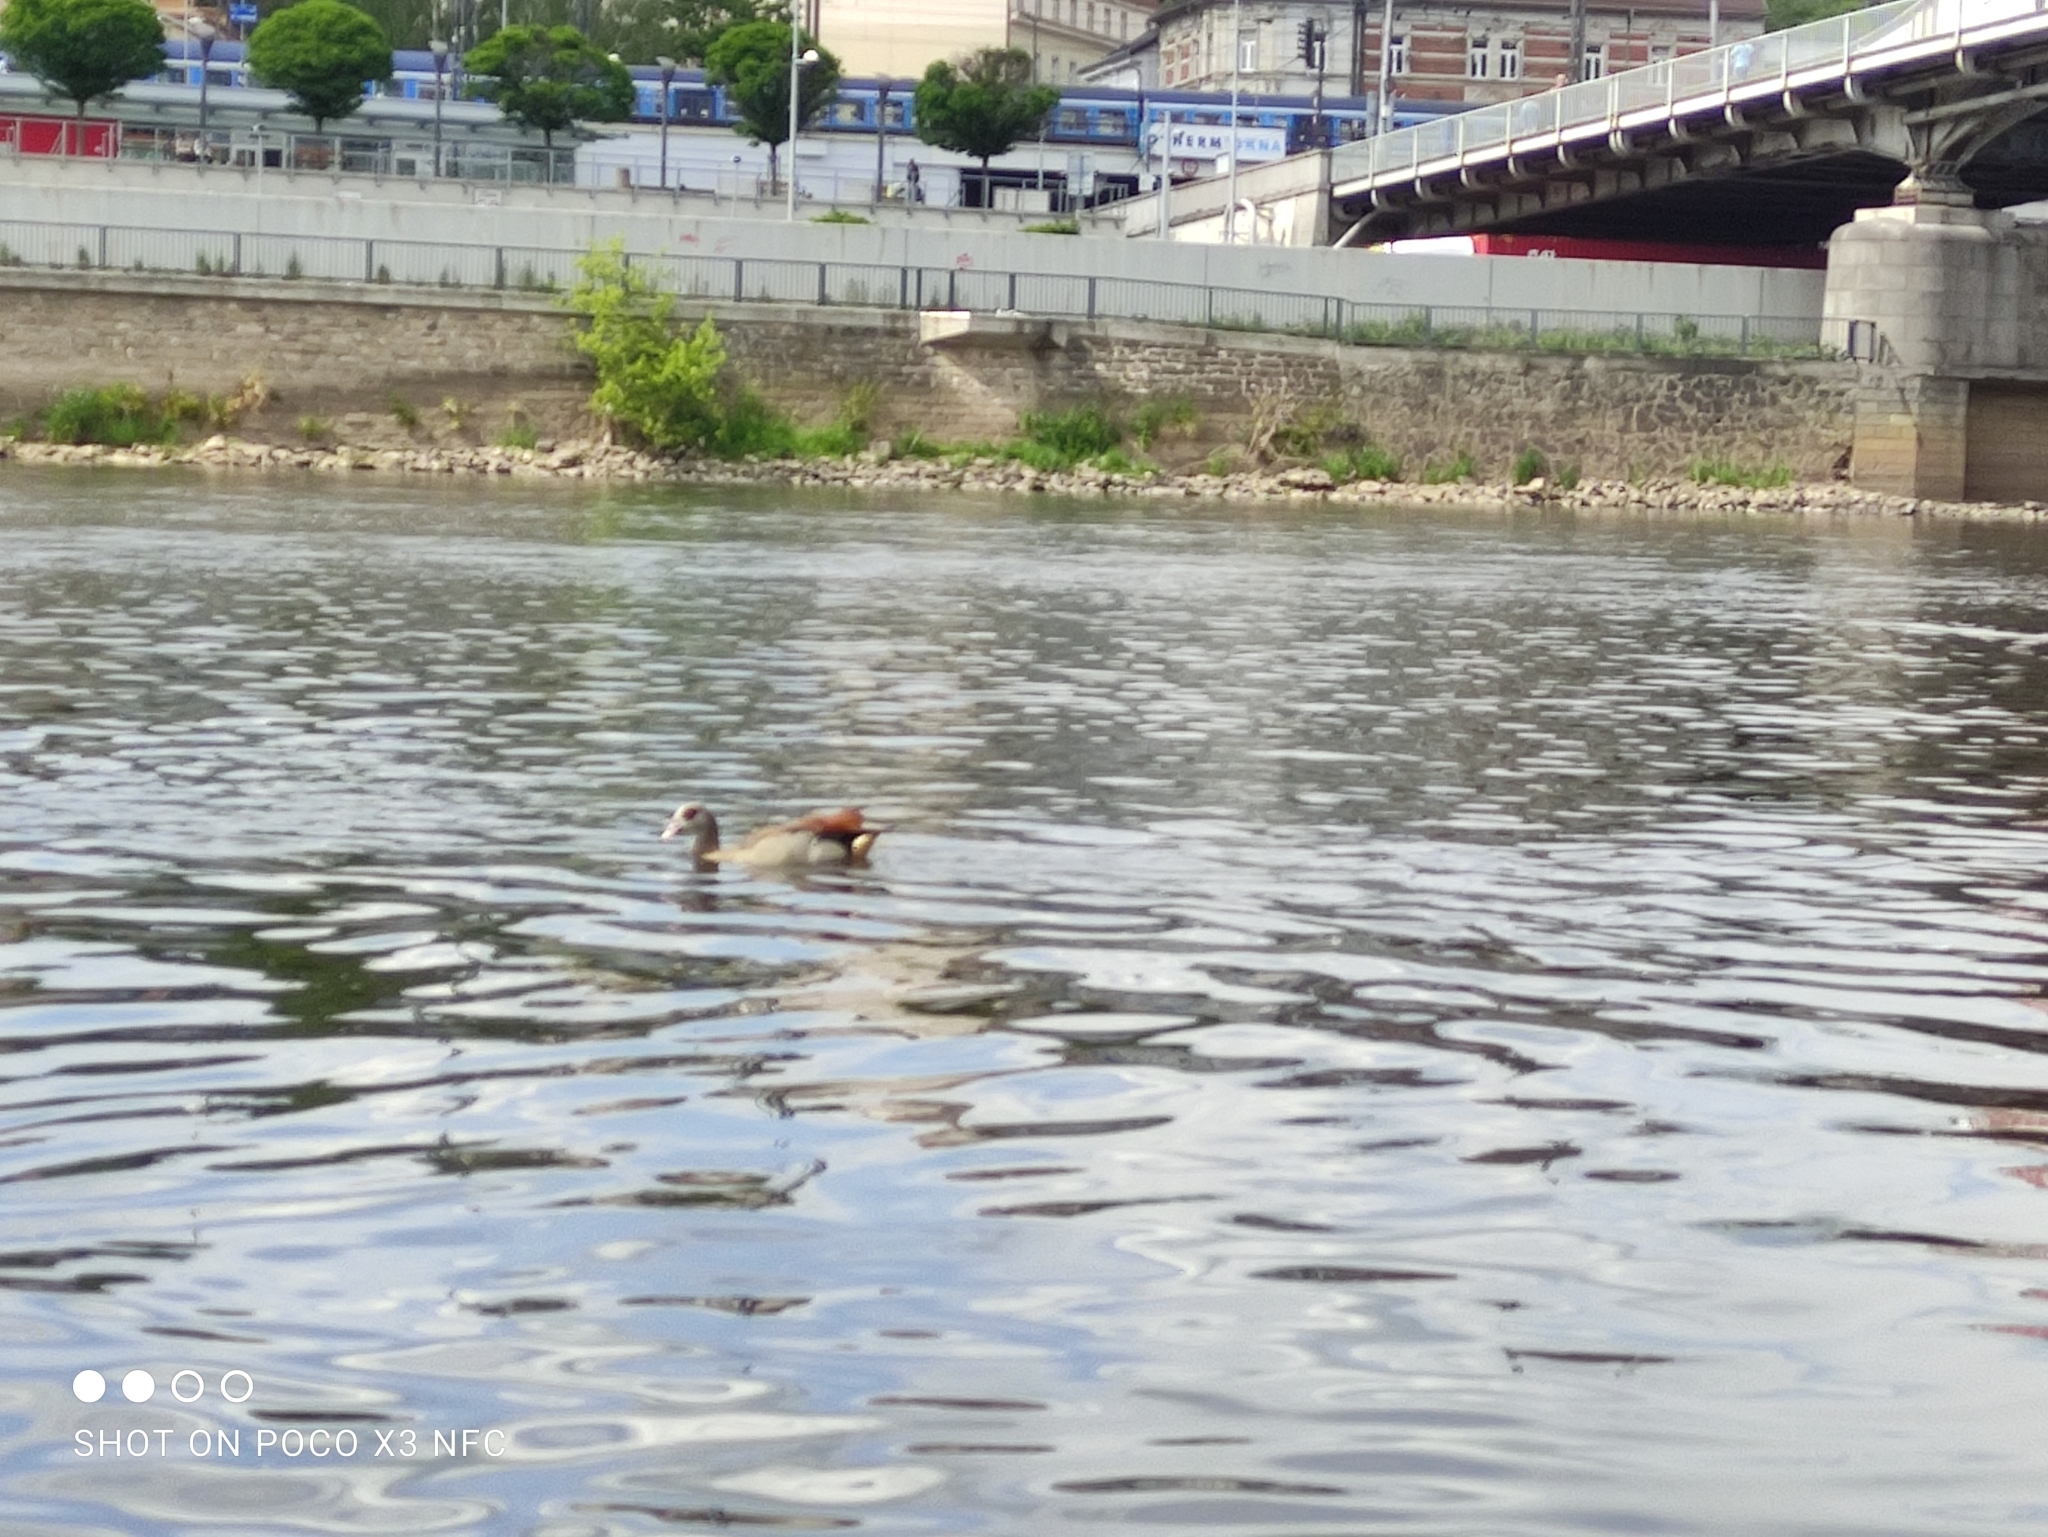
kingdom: Animalia
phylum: Chordata
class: Aves
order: Anseriformes
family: Anatidae
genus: Alopochen
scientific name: Alopochen aegyptiaca
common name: Egyptian goose
